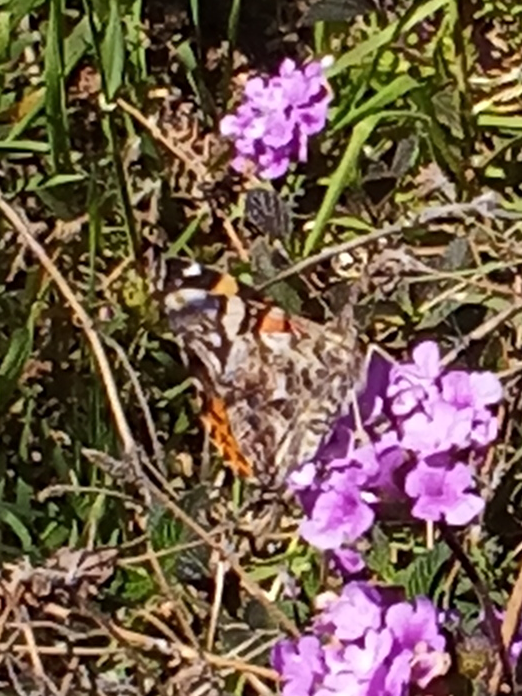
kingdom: Animalia
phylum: Arthropoda
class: Insecta
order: Lepidoptera
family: Nymphalidae
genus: Vanessa
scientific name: Vanessa annabella
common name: West coast lady
